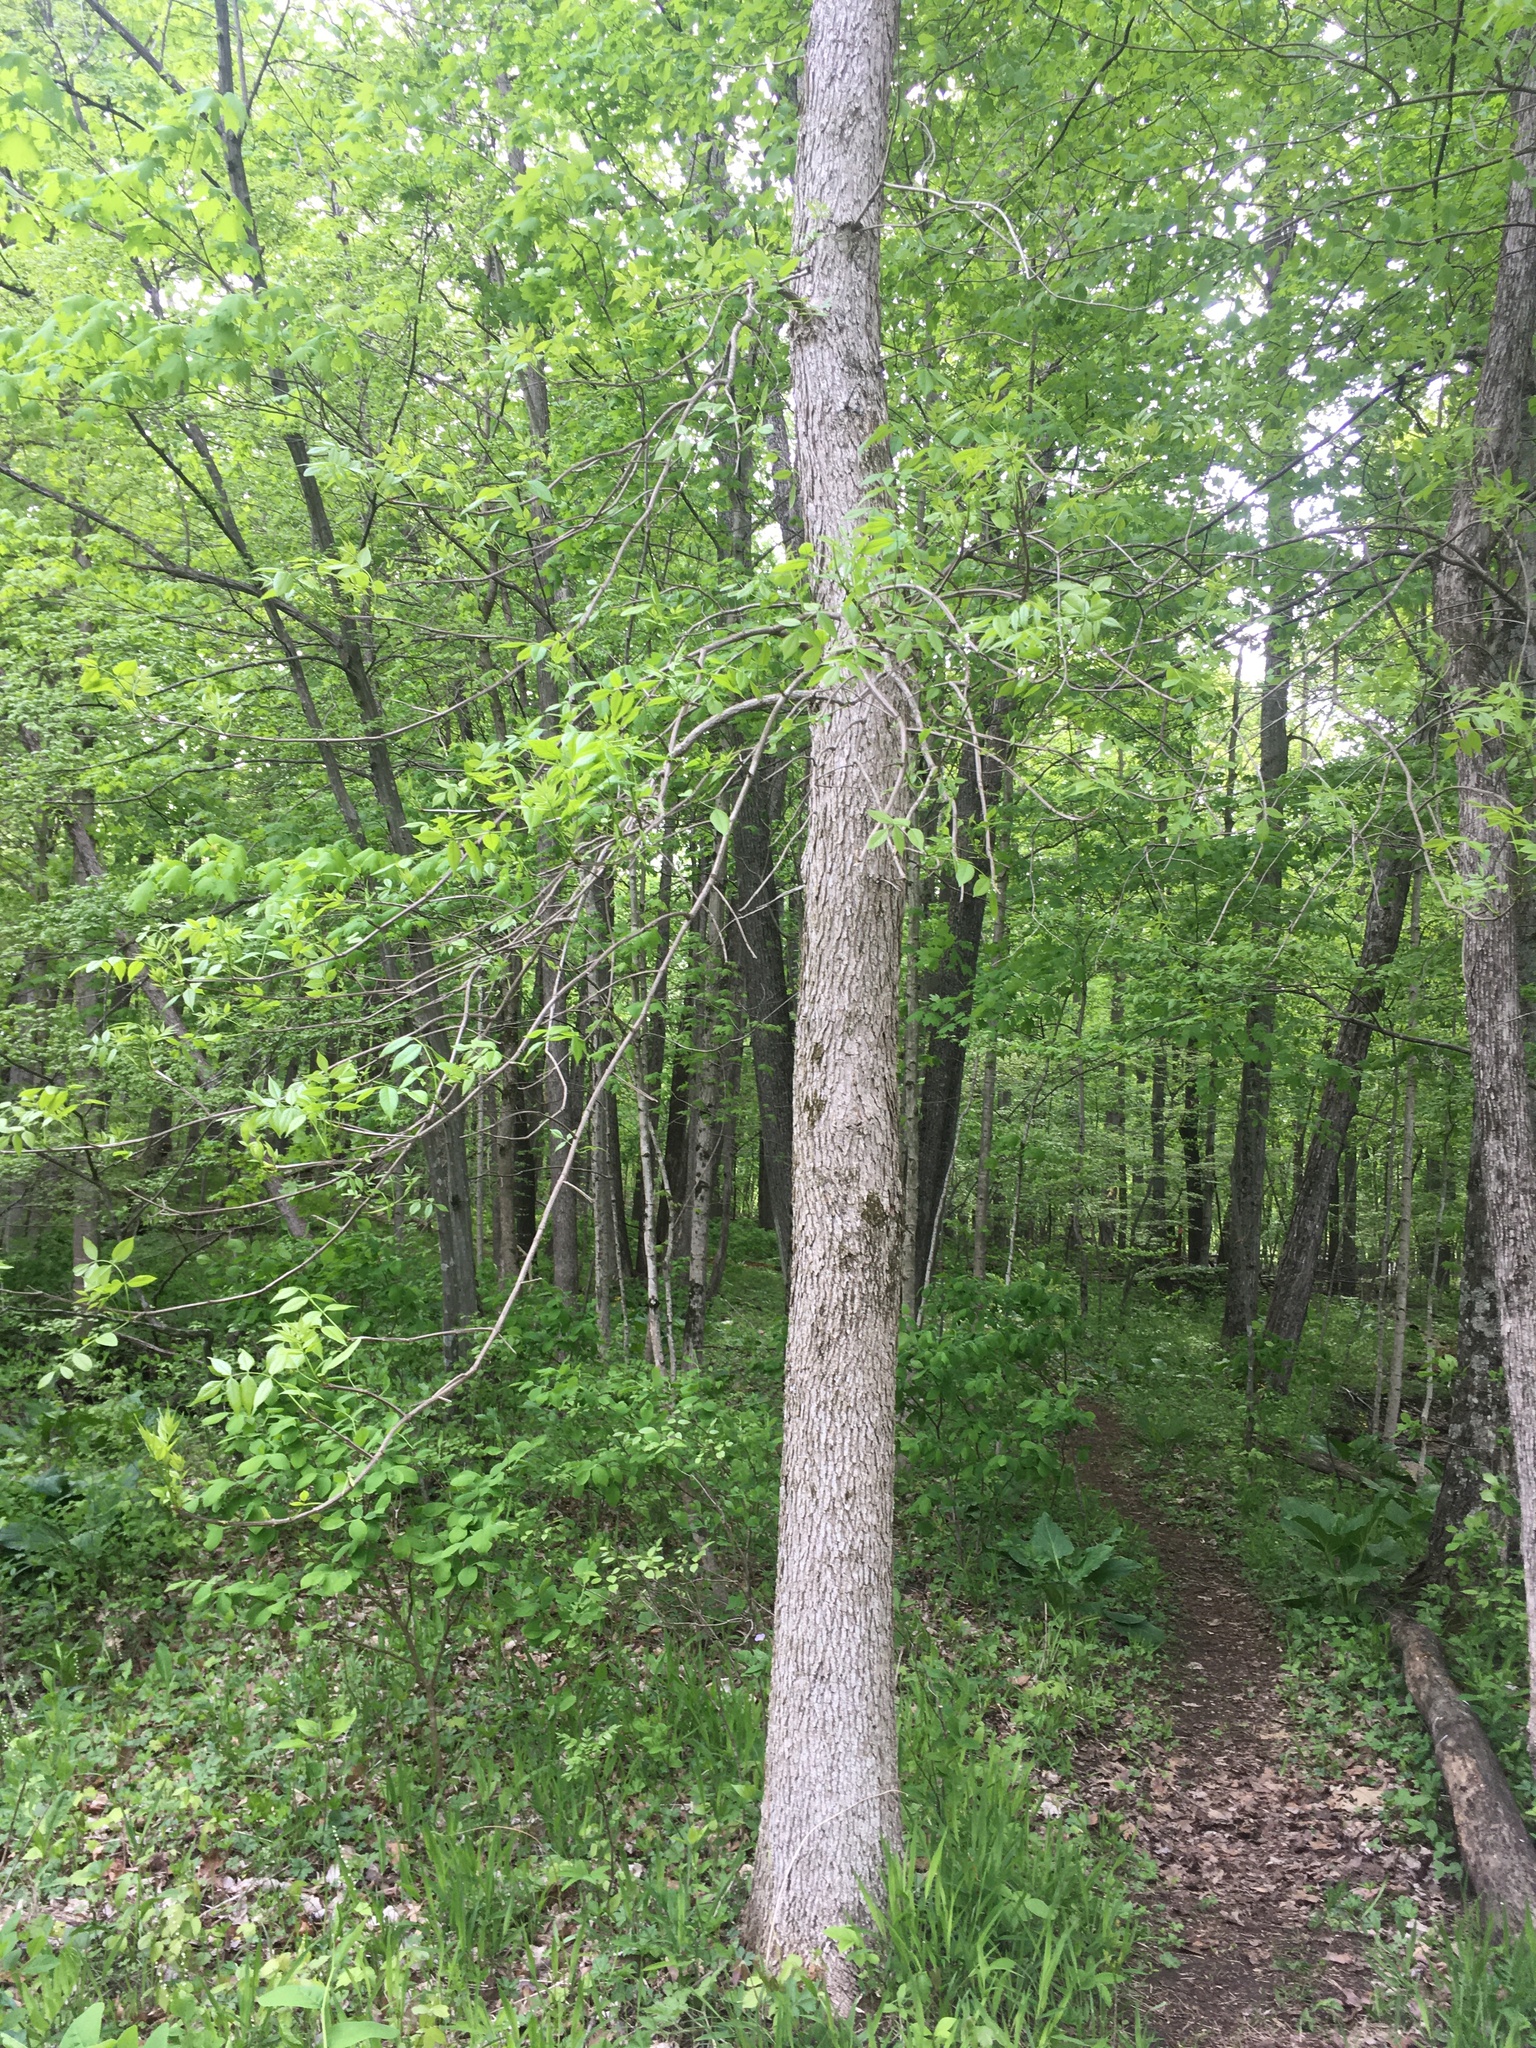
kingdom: Plantae
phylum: Tracheophyta
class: Magnoliopsida
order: Lamiales
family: Oleaceae
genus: Fraxinus
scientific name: Fraxinus quadrangulata
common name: Blue ash
